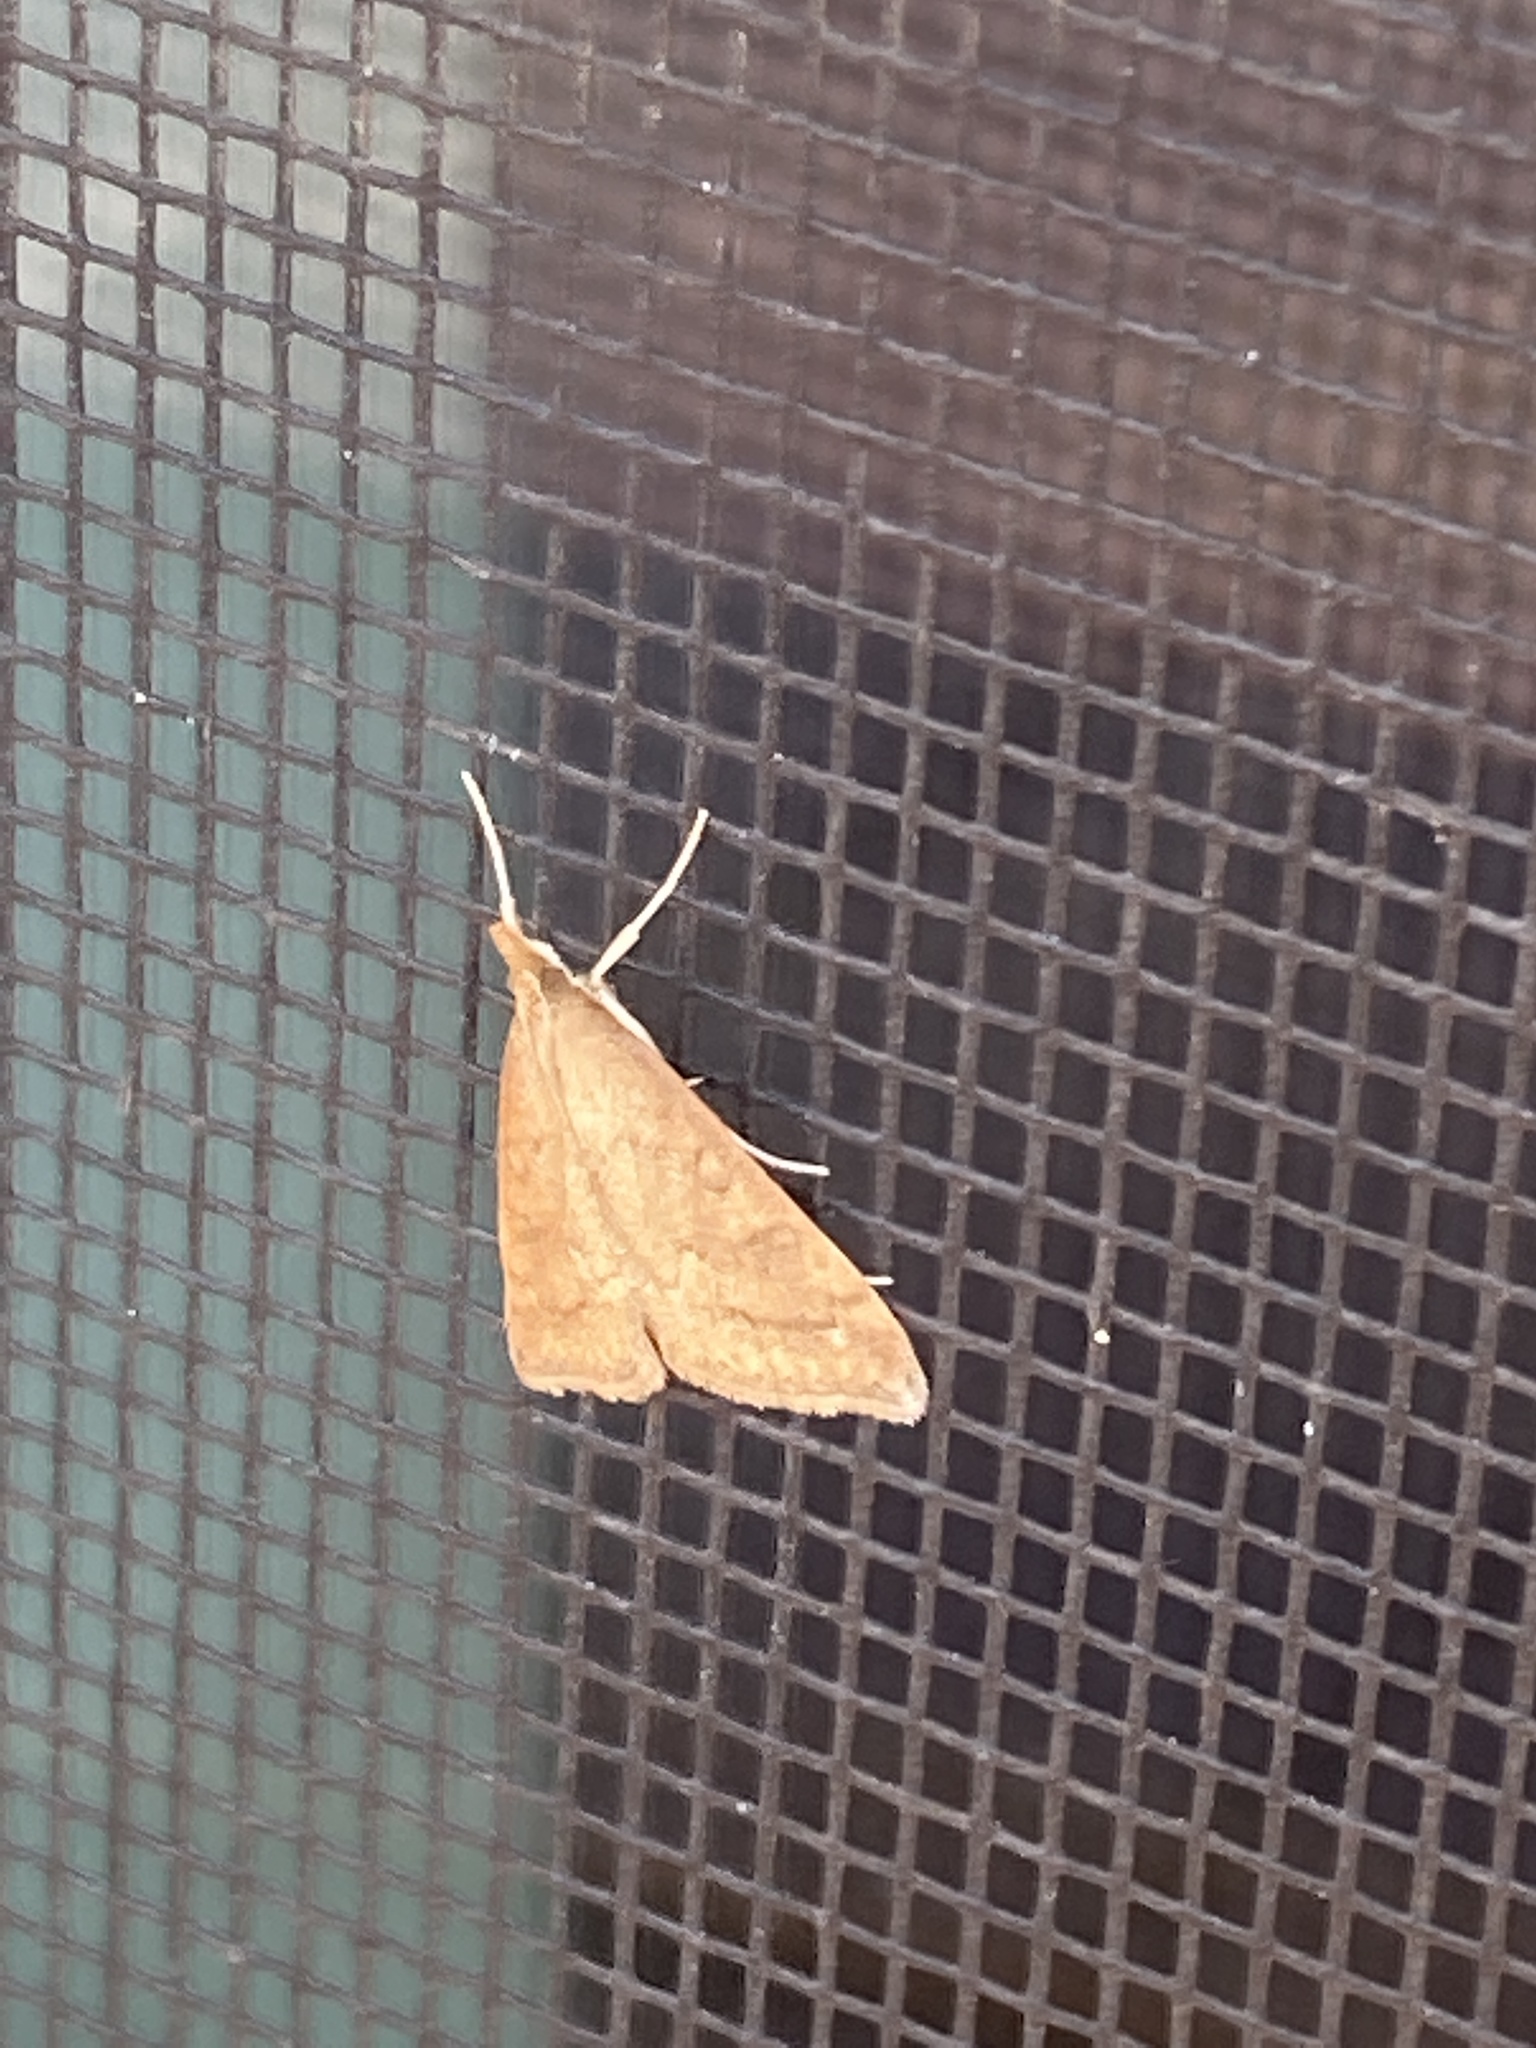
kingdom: Animalia
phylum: Arthropoda
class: Insecta
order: Lepidoptera
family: Crambidae
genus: Udea
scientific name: Udea rubigalis
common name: Celery leaftier moth
